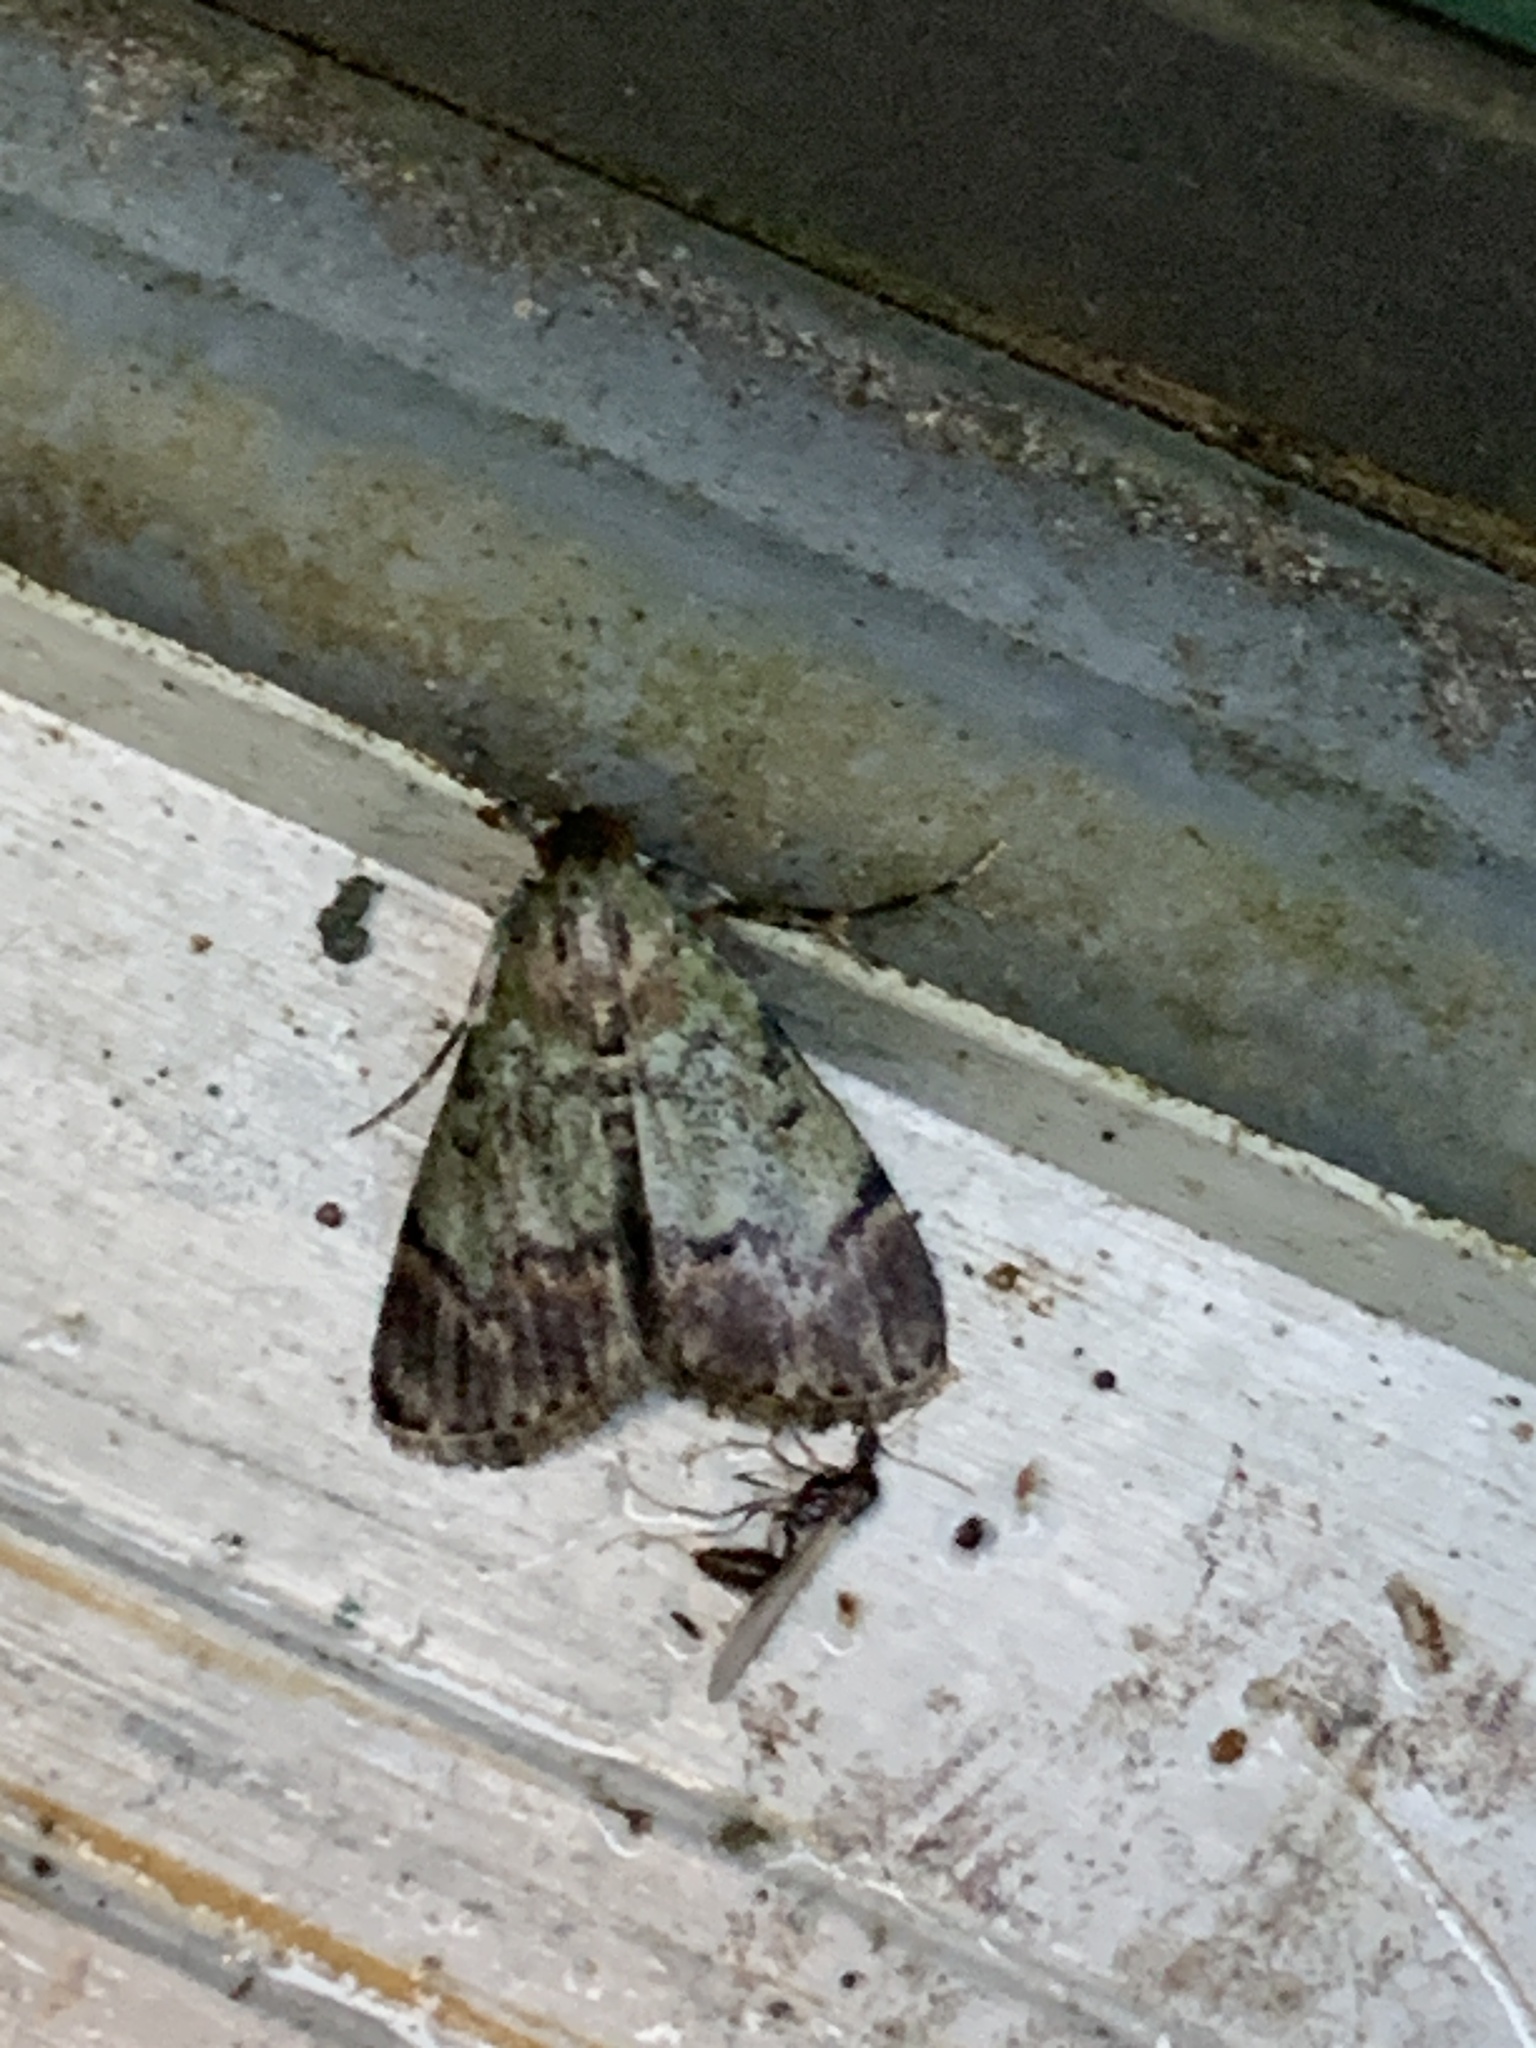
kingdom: Animalia
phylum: Arthropoda
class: Insecta
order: Lepidoptera
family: Pyralidae
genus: Epipaschia
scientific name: Epipaschia superatalis
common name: Dimorphic macalla moth
